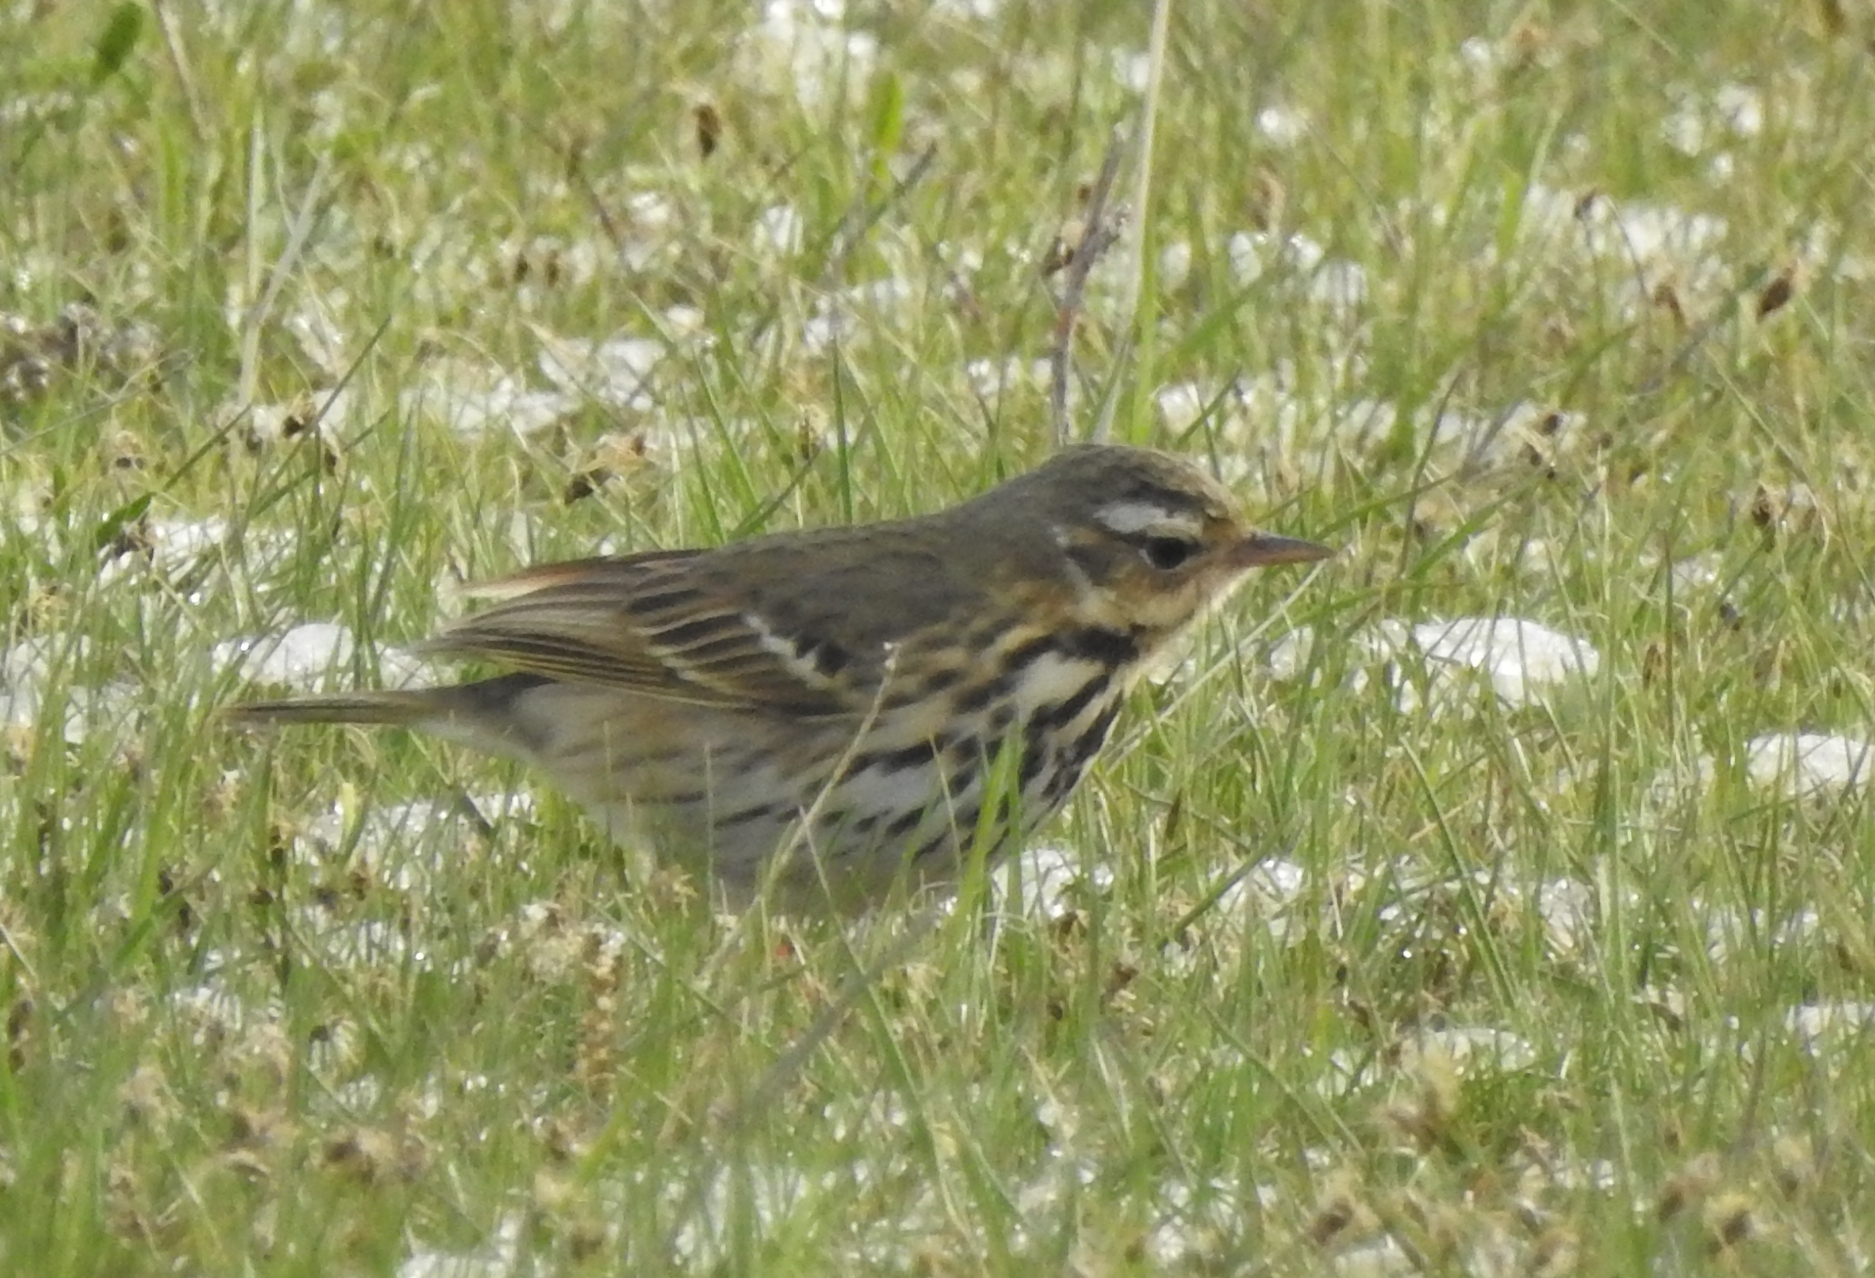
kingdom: Animalia
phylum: Chordata
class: Aves
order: Passeriformes
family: Motacillidae
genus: Anthus
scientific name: Anthus hodgsoni
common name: Olive-backed pipit
